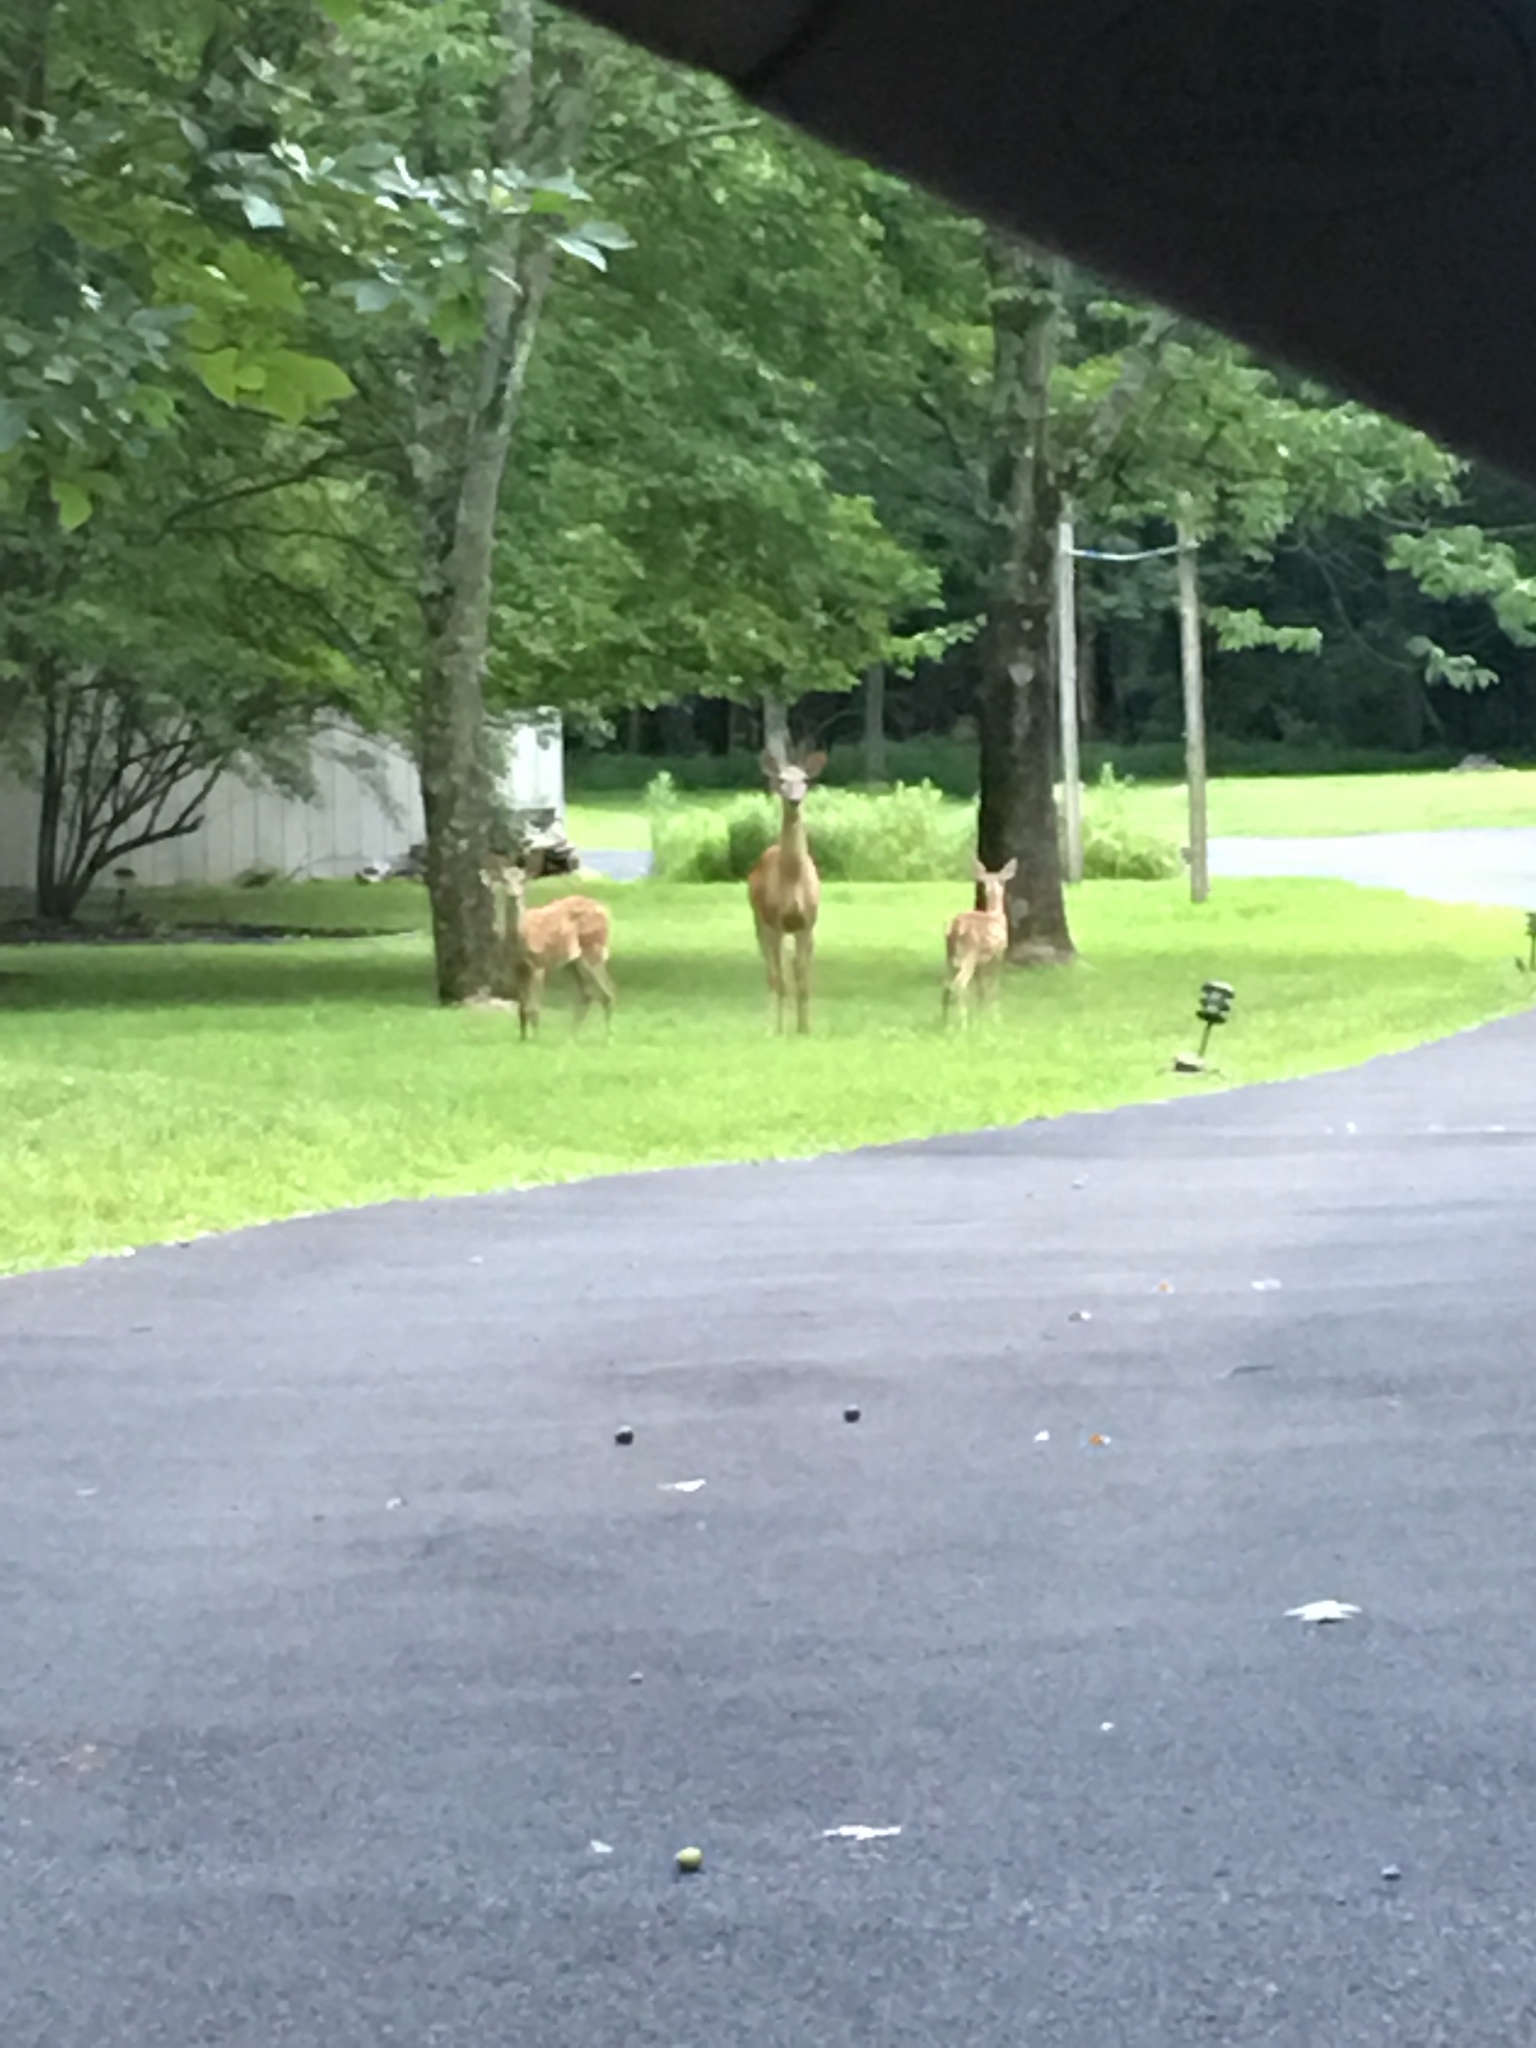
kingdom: Animalia
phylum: Chordata
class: Mammalia
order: Artiodactyla
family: Cervidae
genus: Odocoileus
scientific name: Odocoileus virginianus
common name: White-tailed deer
